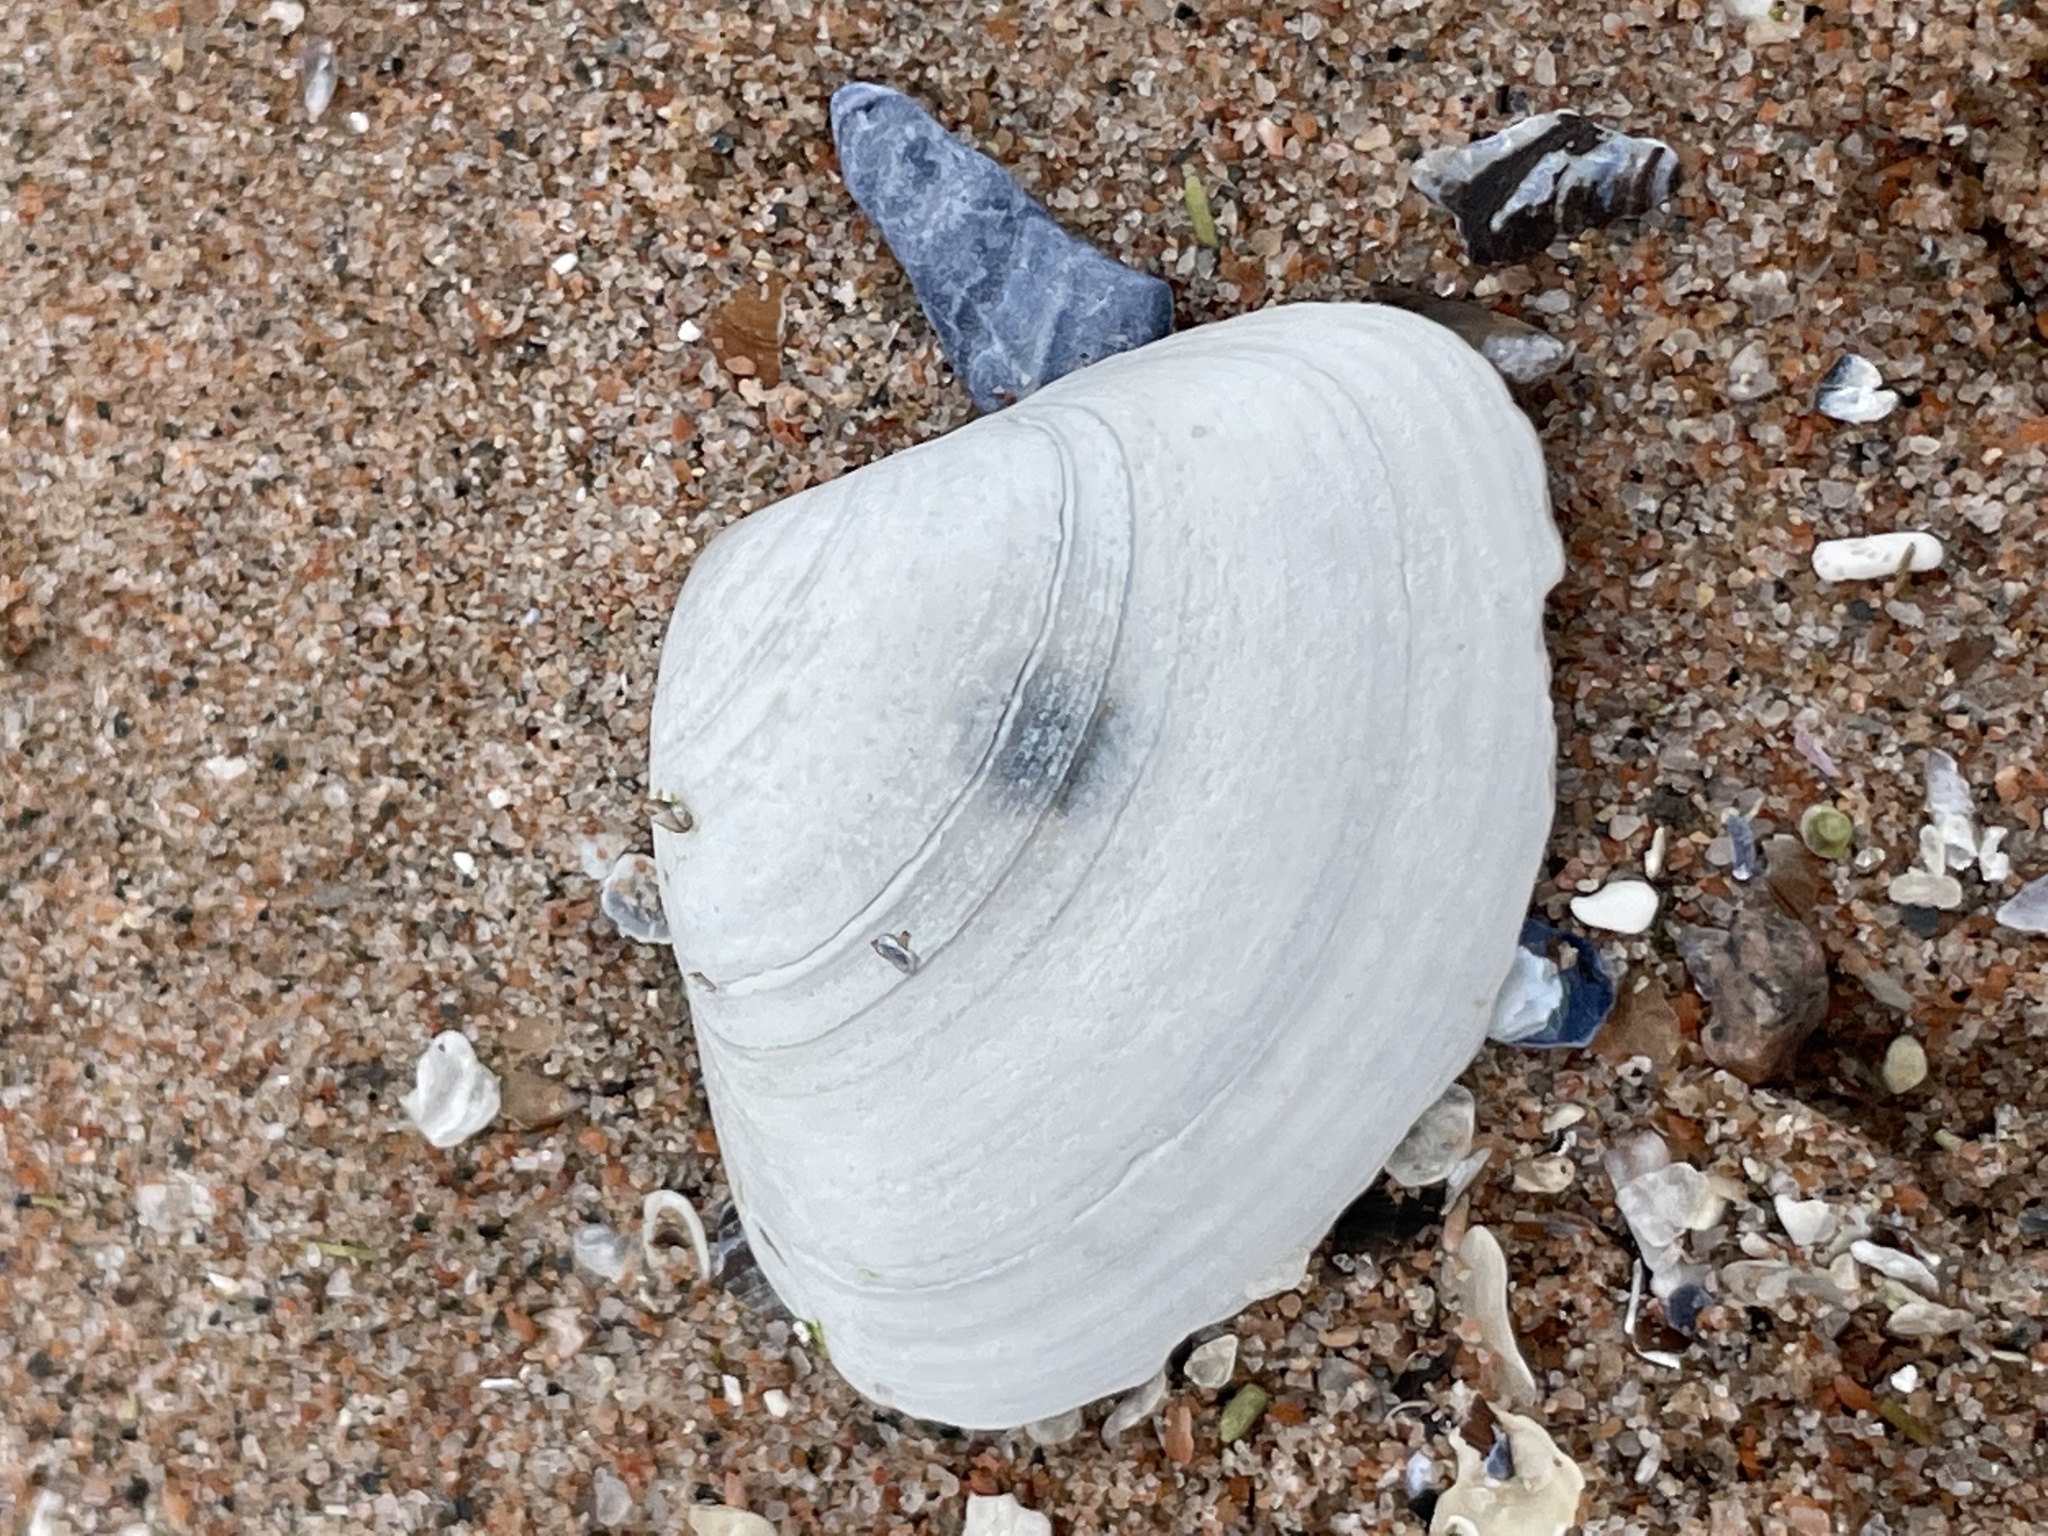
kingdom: Animalia
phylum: Mollusca
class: Bivalvia
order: Venerida
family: Mactridae
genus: Spisula
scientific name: Spisula solidissima
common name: Atlantic surf clam
